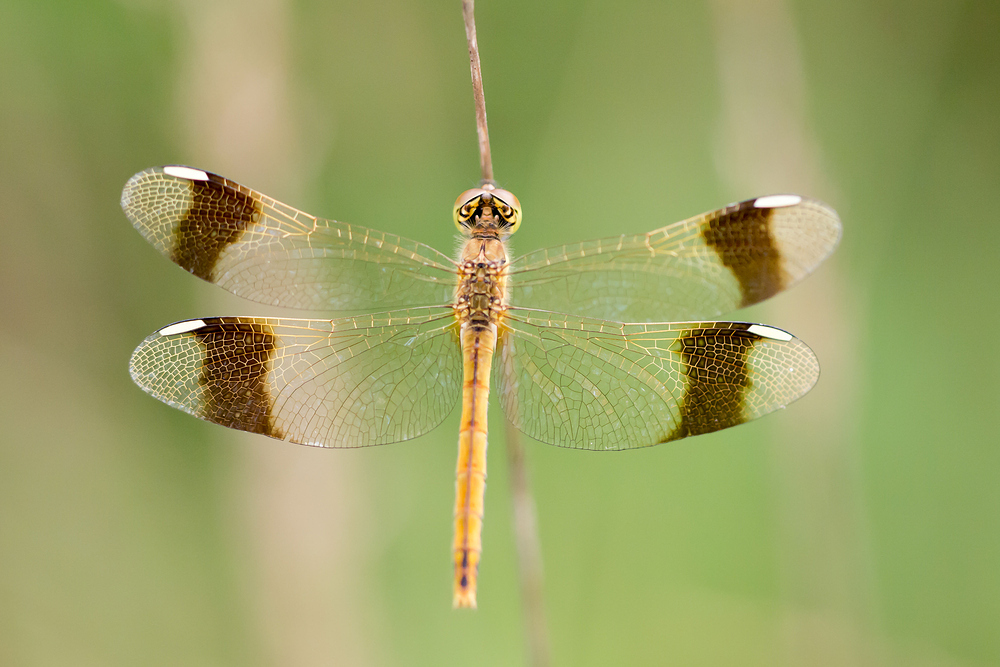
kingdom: Animalia
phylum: Arthropoda
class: Insecta
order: Odonata
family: Libellulidae
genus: Sympetrum
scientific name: Sympetrum pedemontanum
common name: Banded darter
